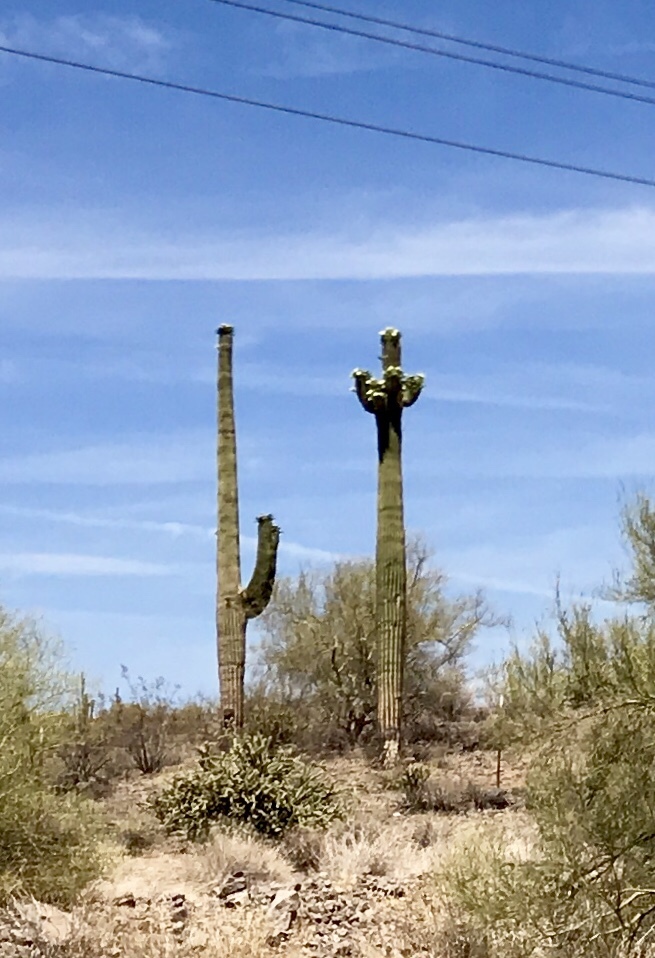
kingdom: Plantae
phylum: Tracheophyta
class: Magnoliopsida
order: Caryophyllales
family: Cactaceae
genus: Carnegiea
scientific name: Carnegiea gigantea
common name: Saguaro
